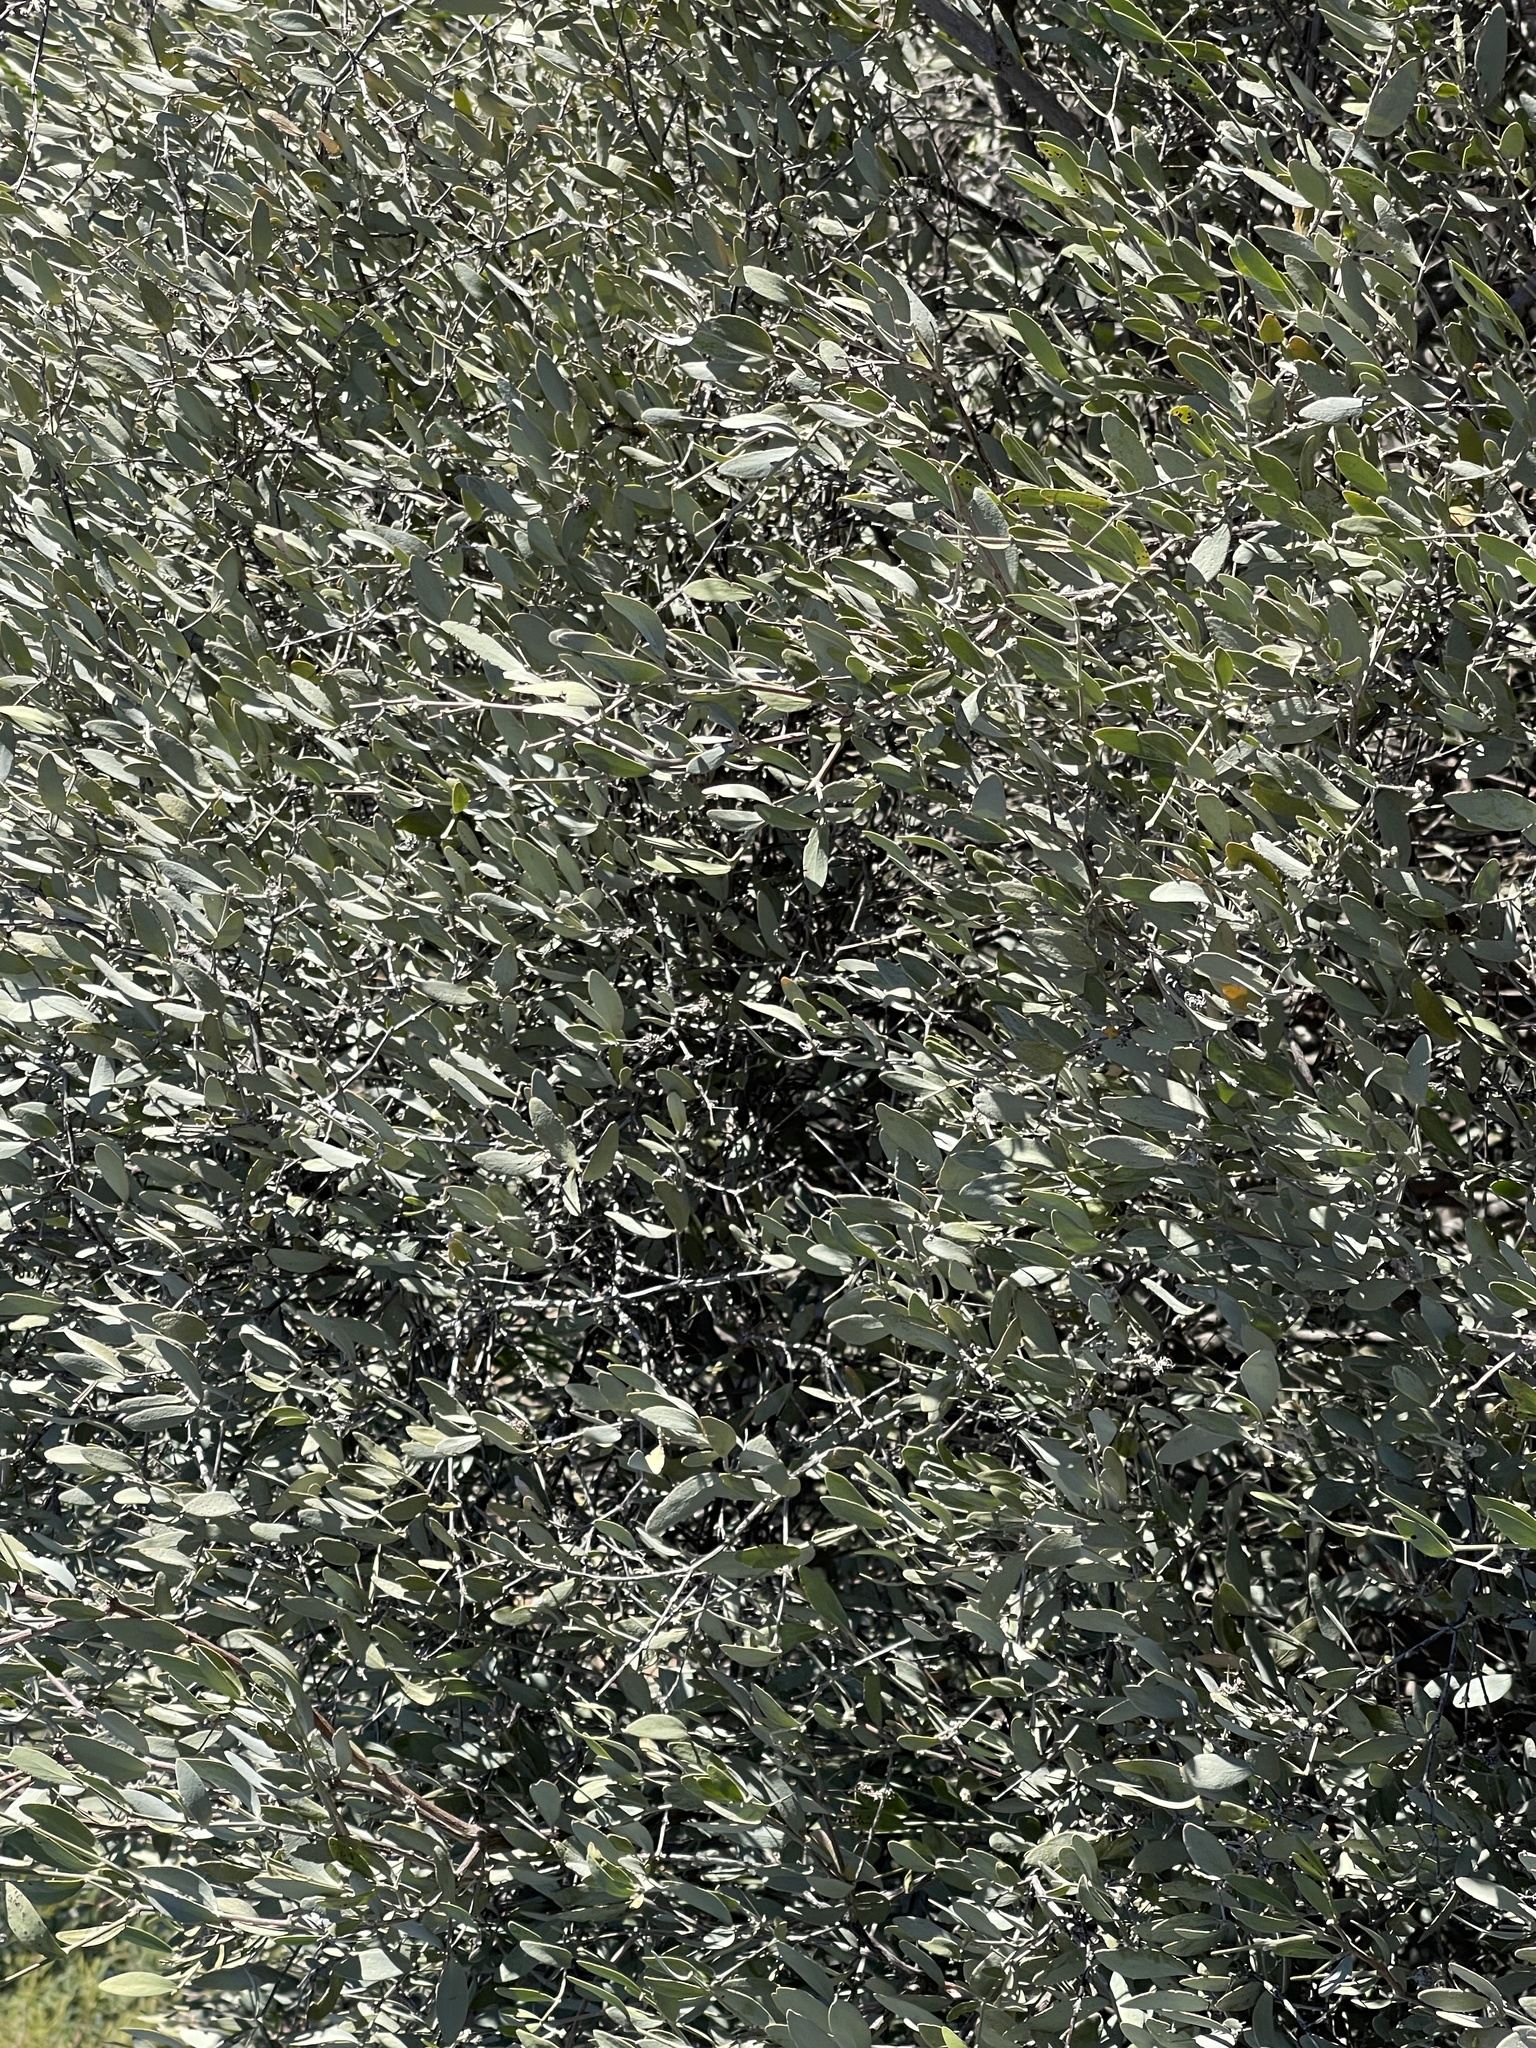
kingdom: Plantae
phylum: Tracheophyta
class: Magnoliopsida
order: Caryophyllales
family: Simmondsiaceae
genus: Simmondsia
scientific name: Simmondsia chinensis
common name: Jojoba
